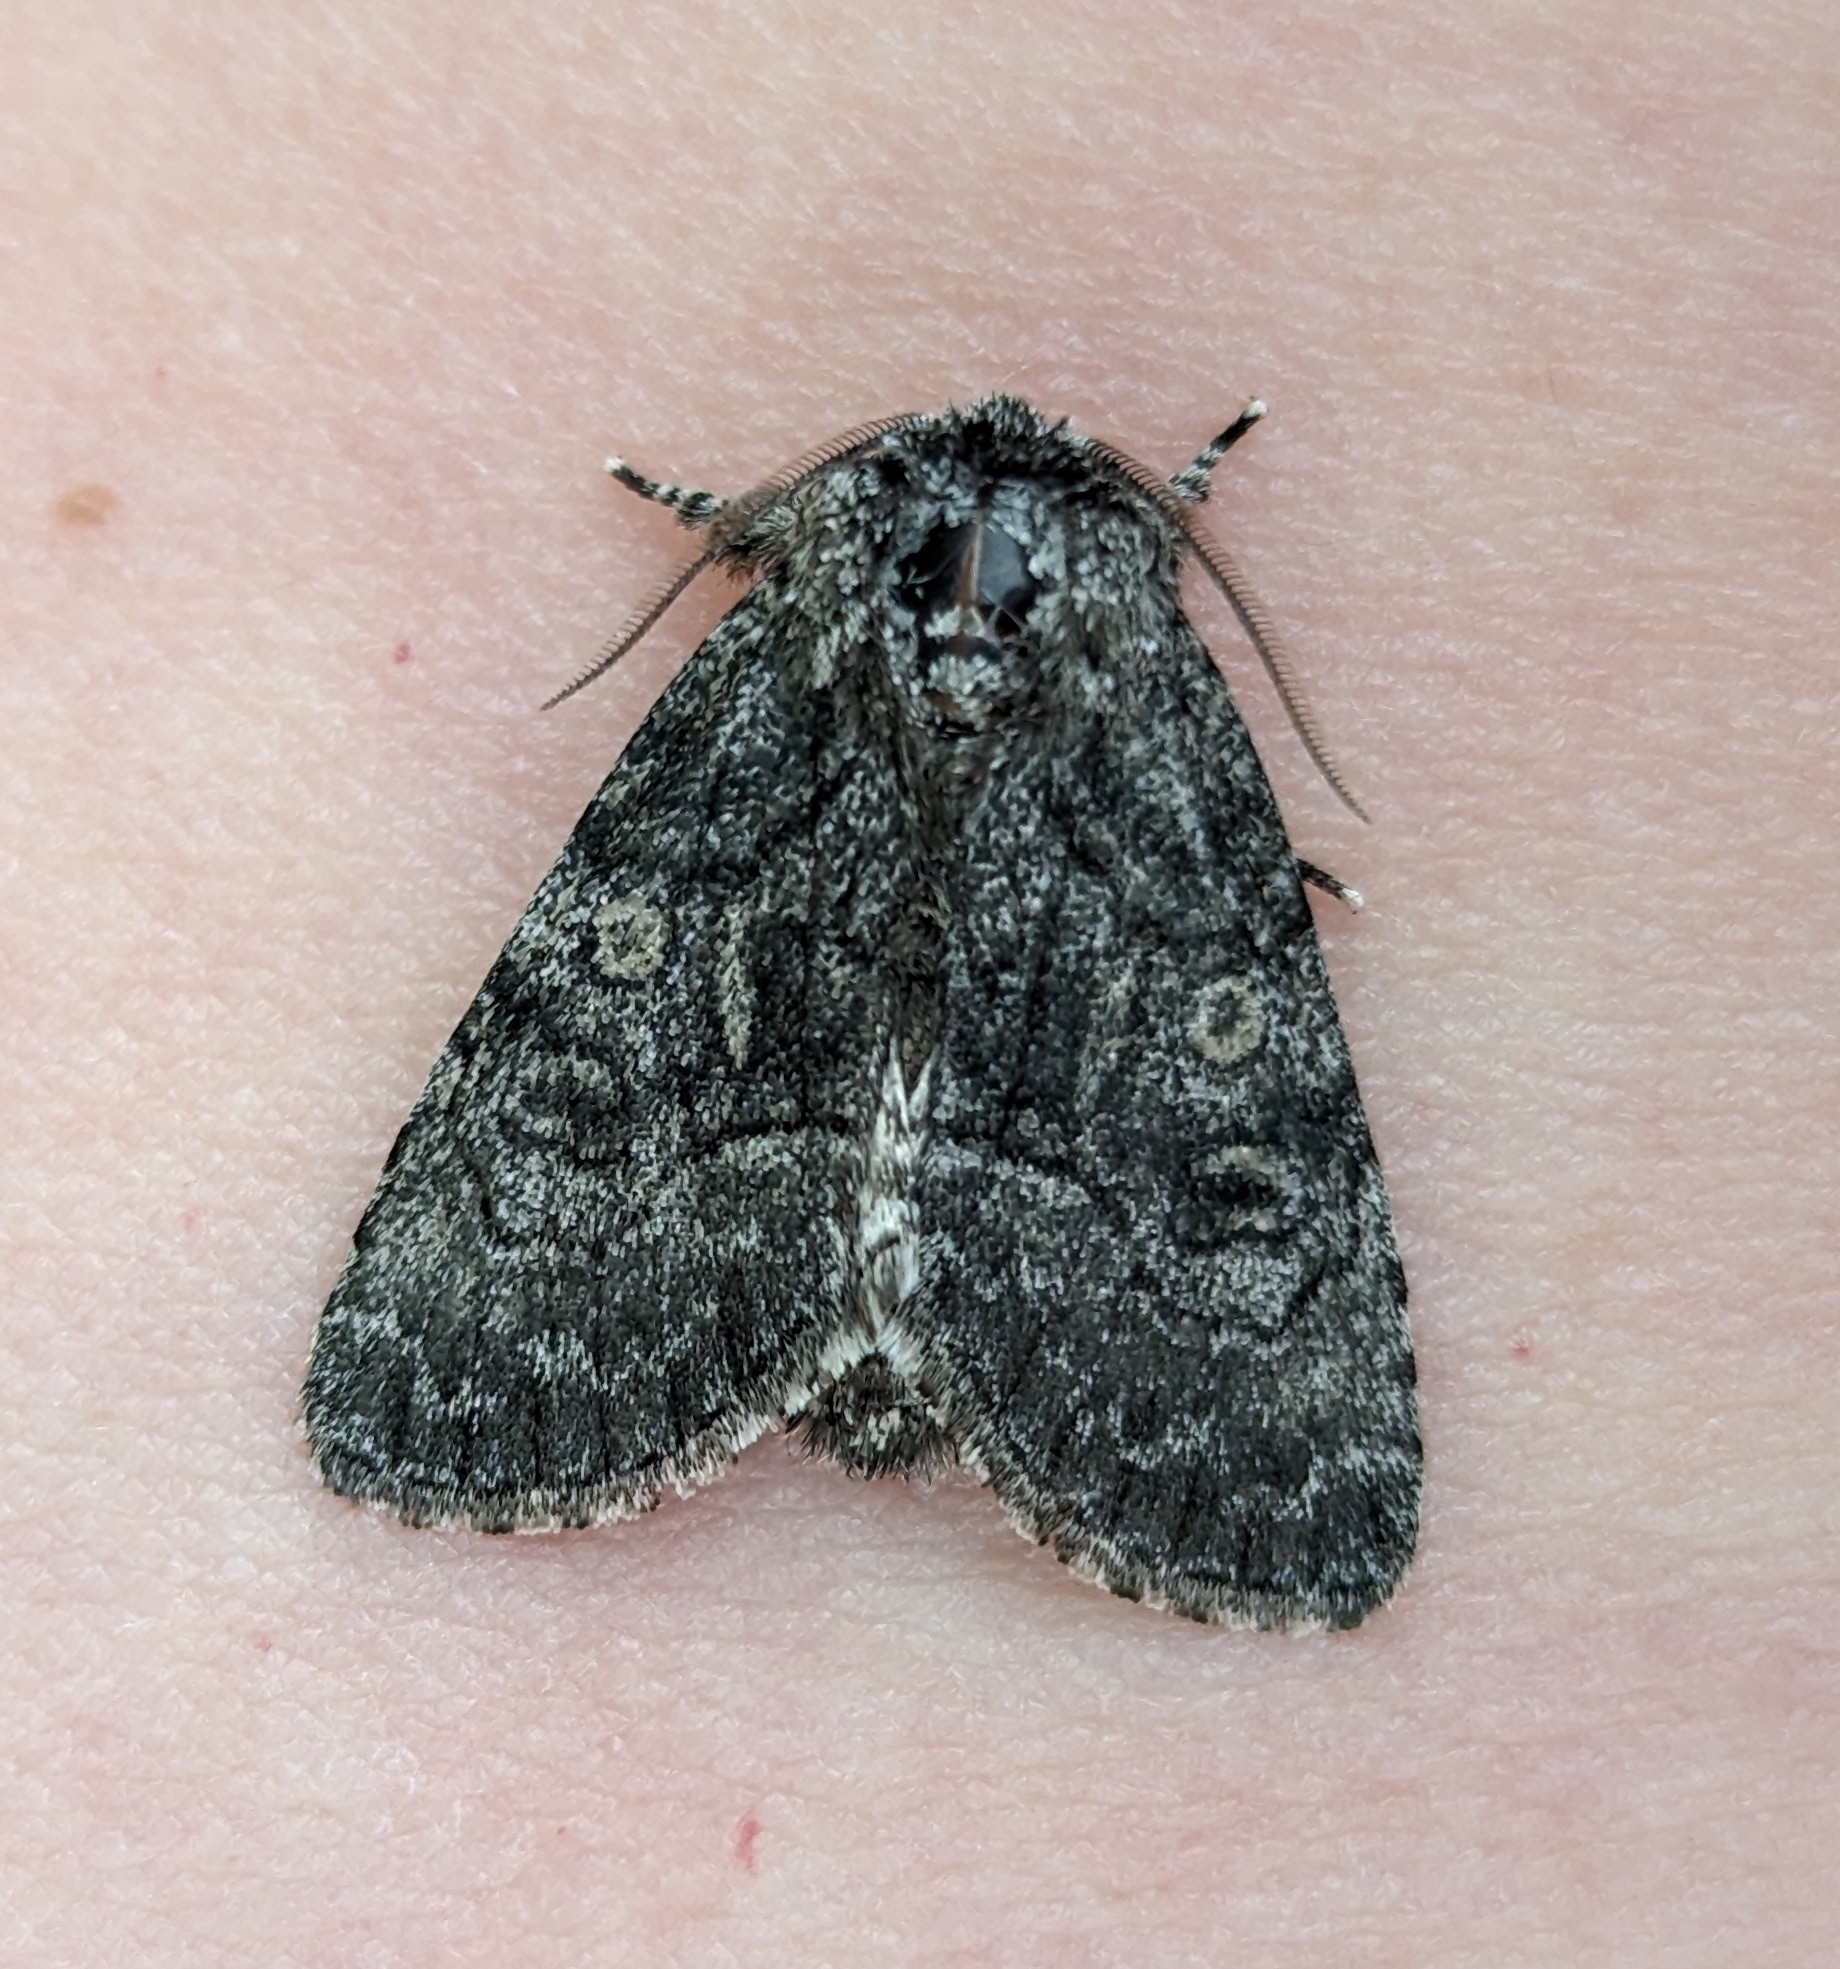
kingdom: Animalia
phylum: Arthropoda
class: Insecta
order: Lepidoptera
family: Noctuidae
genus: Raphia
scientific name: Raphia frater
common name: Brother
